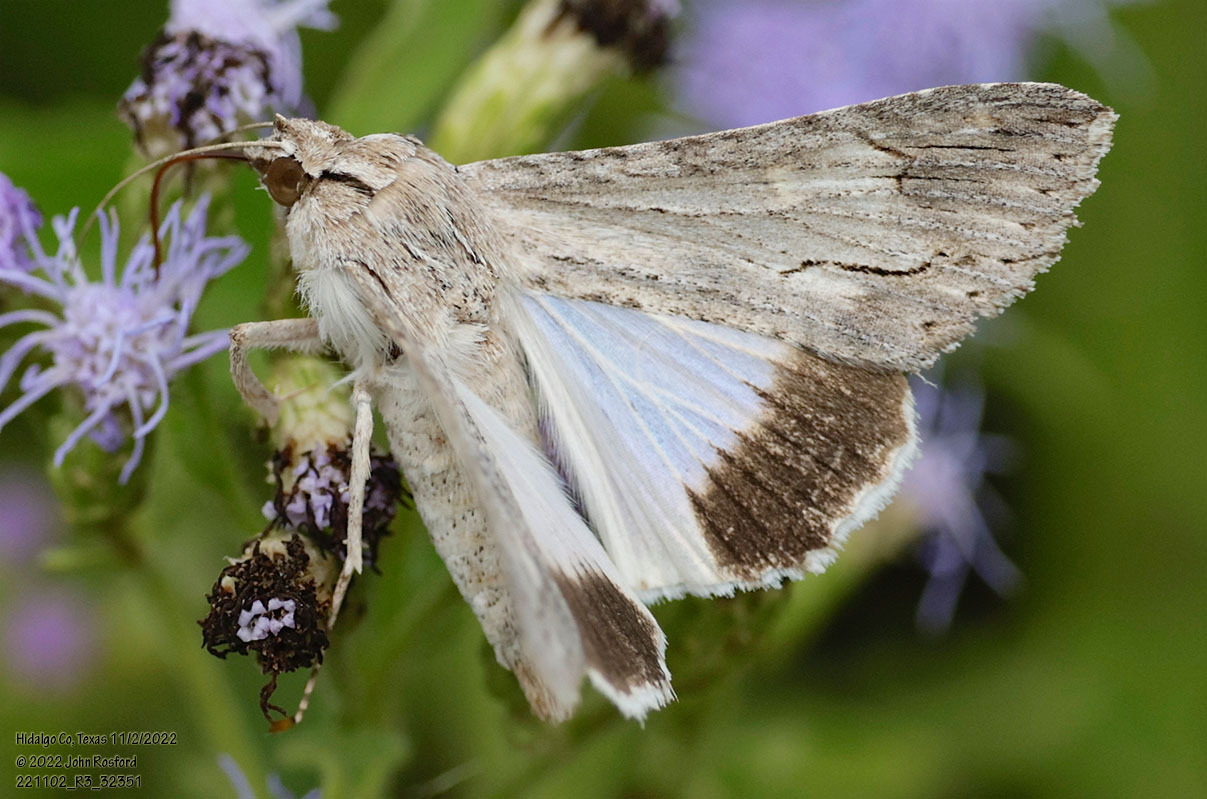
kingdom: Animalia
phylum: Arthropoda
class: Insecta
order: Lepidoptera
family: Erebidae
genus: Melipotis
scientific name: Melipotis acontioides
